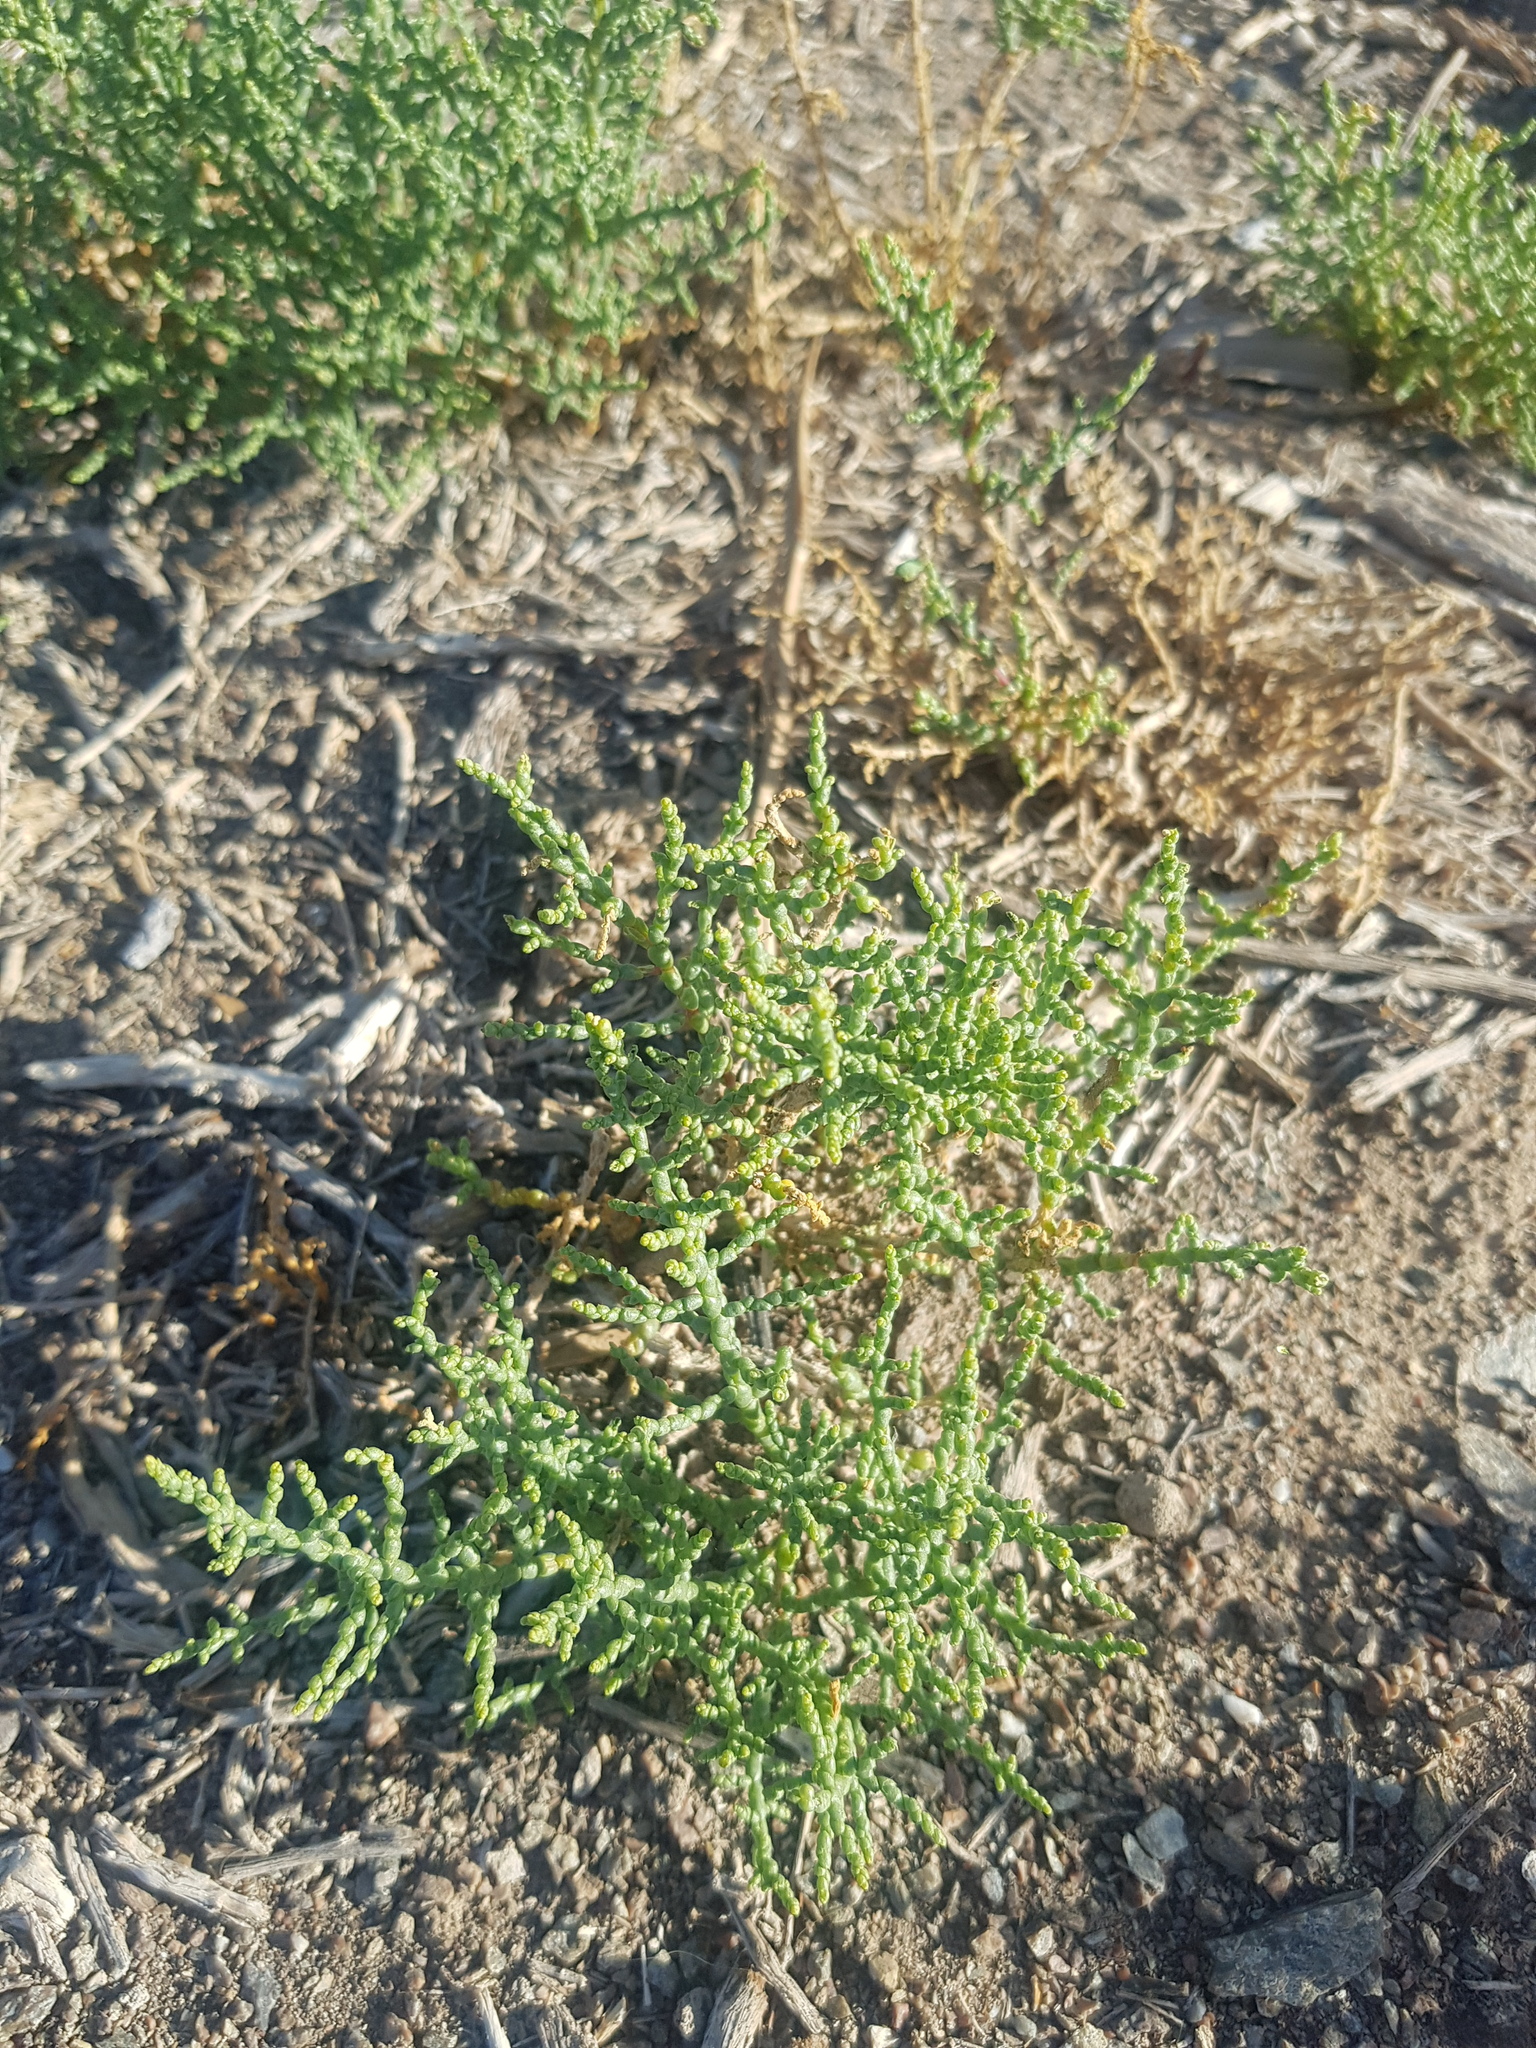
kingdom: Plantae
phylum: Tracheophyta
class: Magnoliopsida
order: Caryophyllales
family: Amaranthaceae
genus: Kalidium
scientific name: Kalidium gracile
